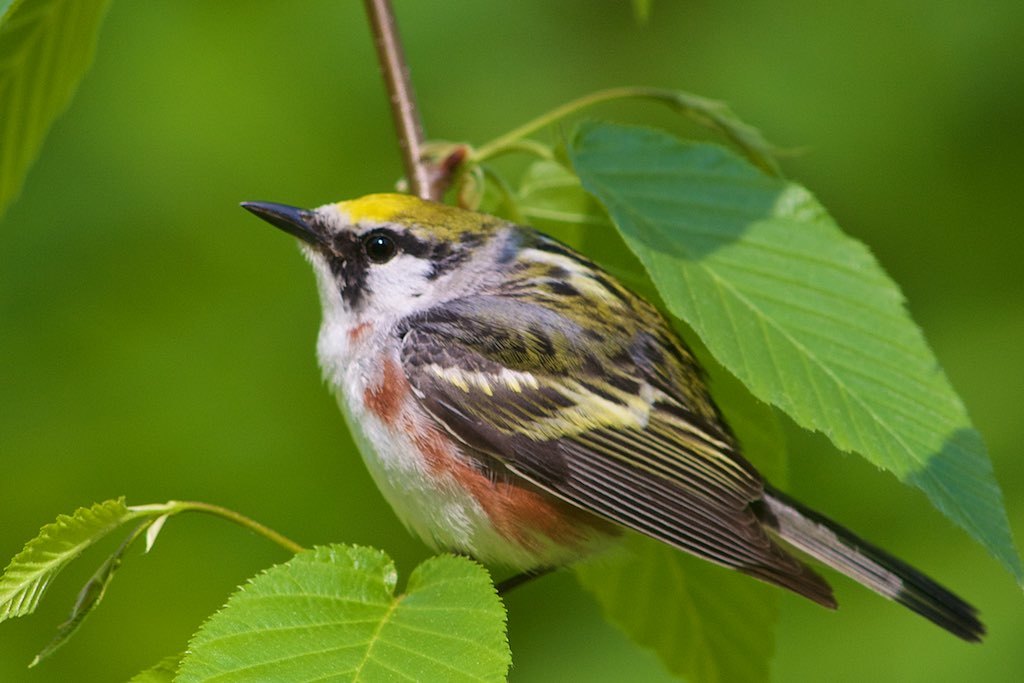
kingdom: Animalia
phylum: Chordata
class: Aves
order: Passeriformes
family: Parulidae
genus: Setophaga
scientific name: Setophaga pensylvanica
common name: Chestnut-sided warbler
